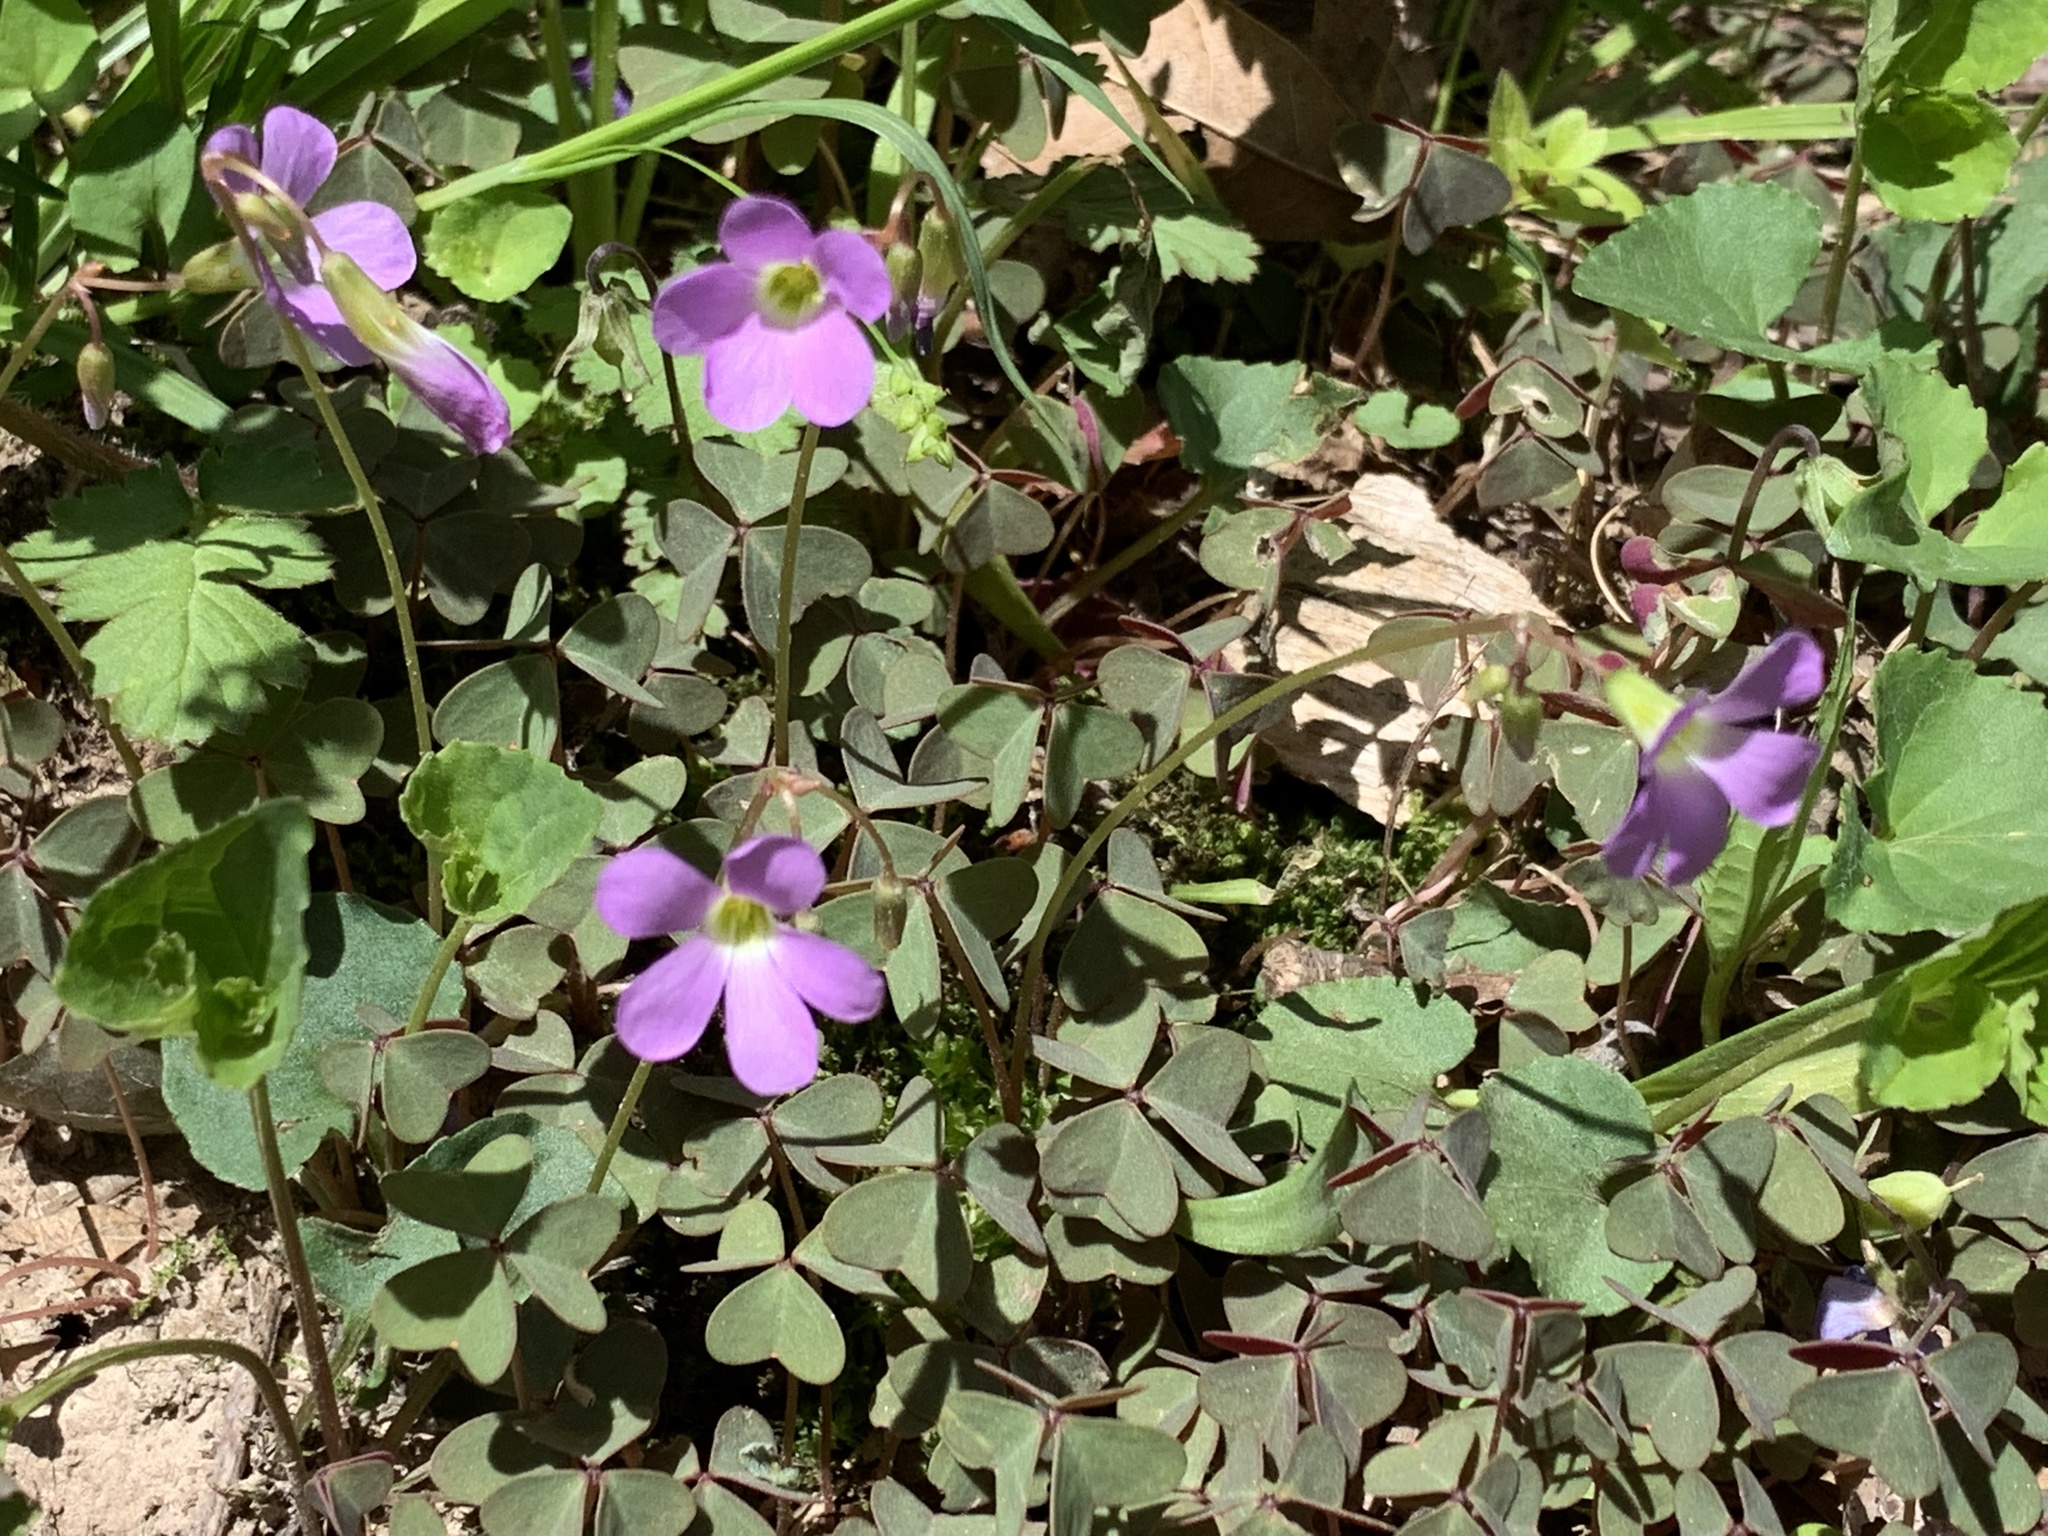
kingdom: Plantae
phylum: Tracheophyta
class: Magnoliopsida
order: Oxalidales
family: Oxalidaceae
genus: Oxalis
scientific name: Oxalis violacea
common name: Violet wood-sorrel
